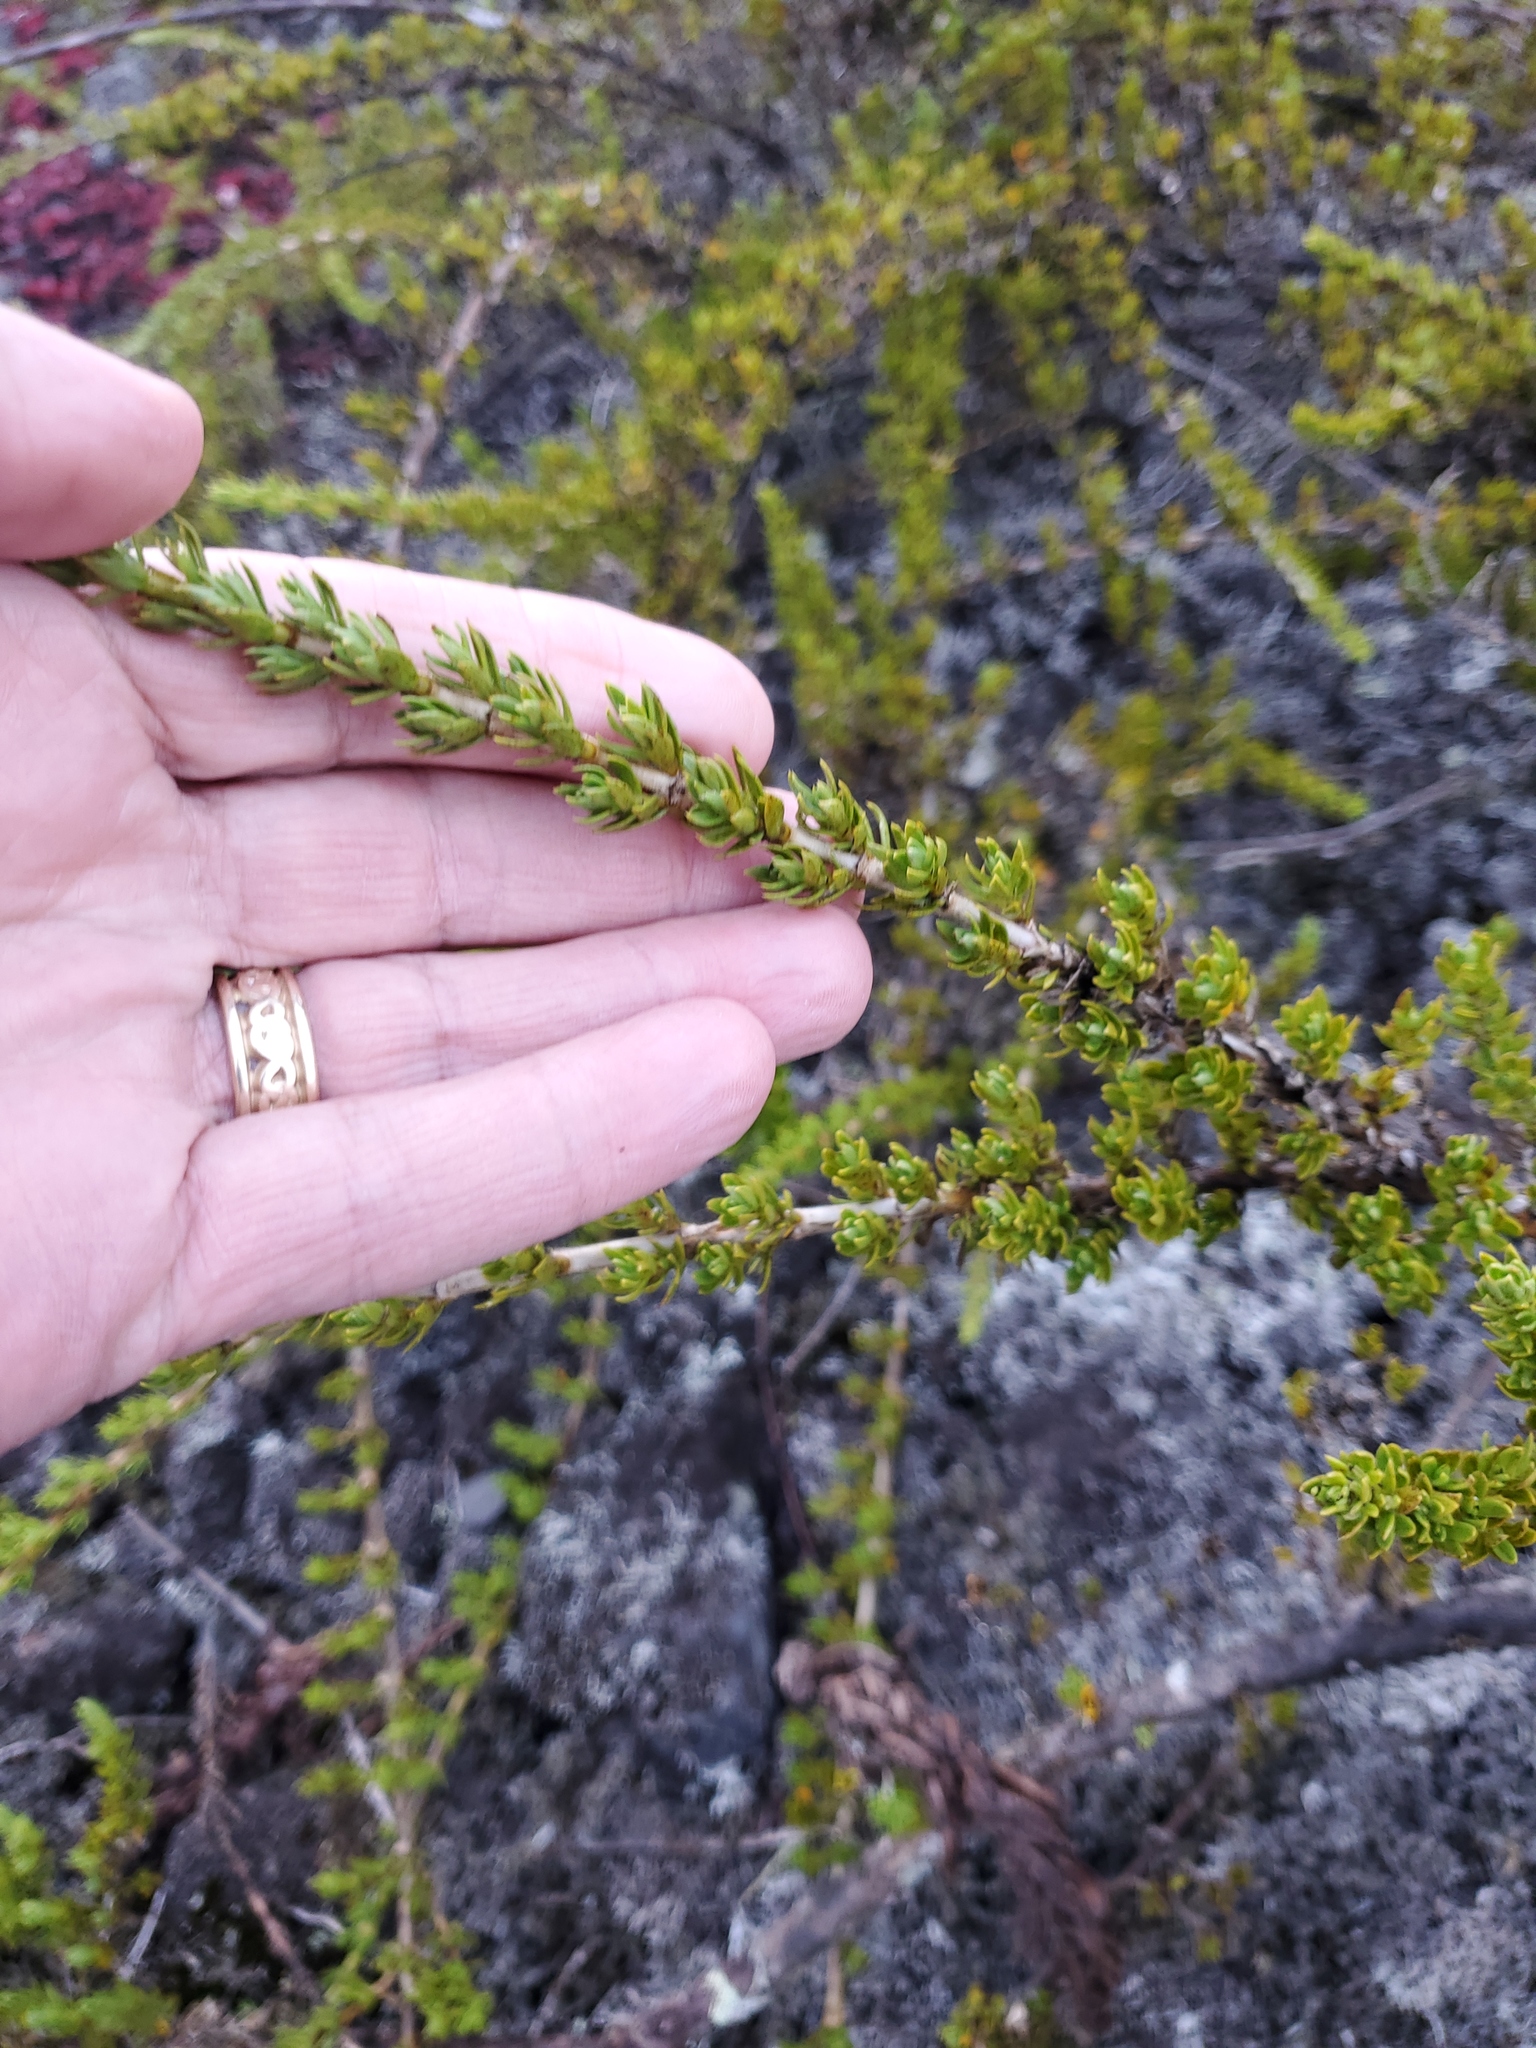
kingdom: Plantae
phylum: Tracheophyta
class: Magnoliopsida
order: Gentianales
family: Rubiaceae
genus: Coprosma
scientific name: Coprosma ernodeoides
